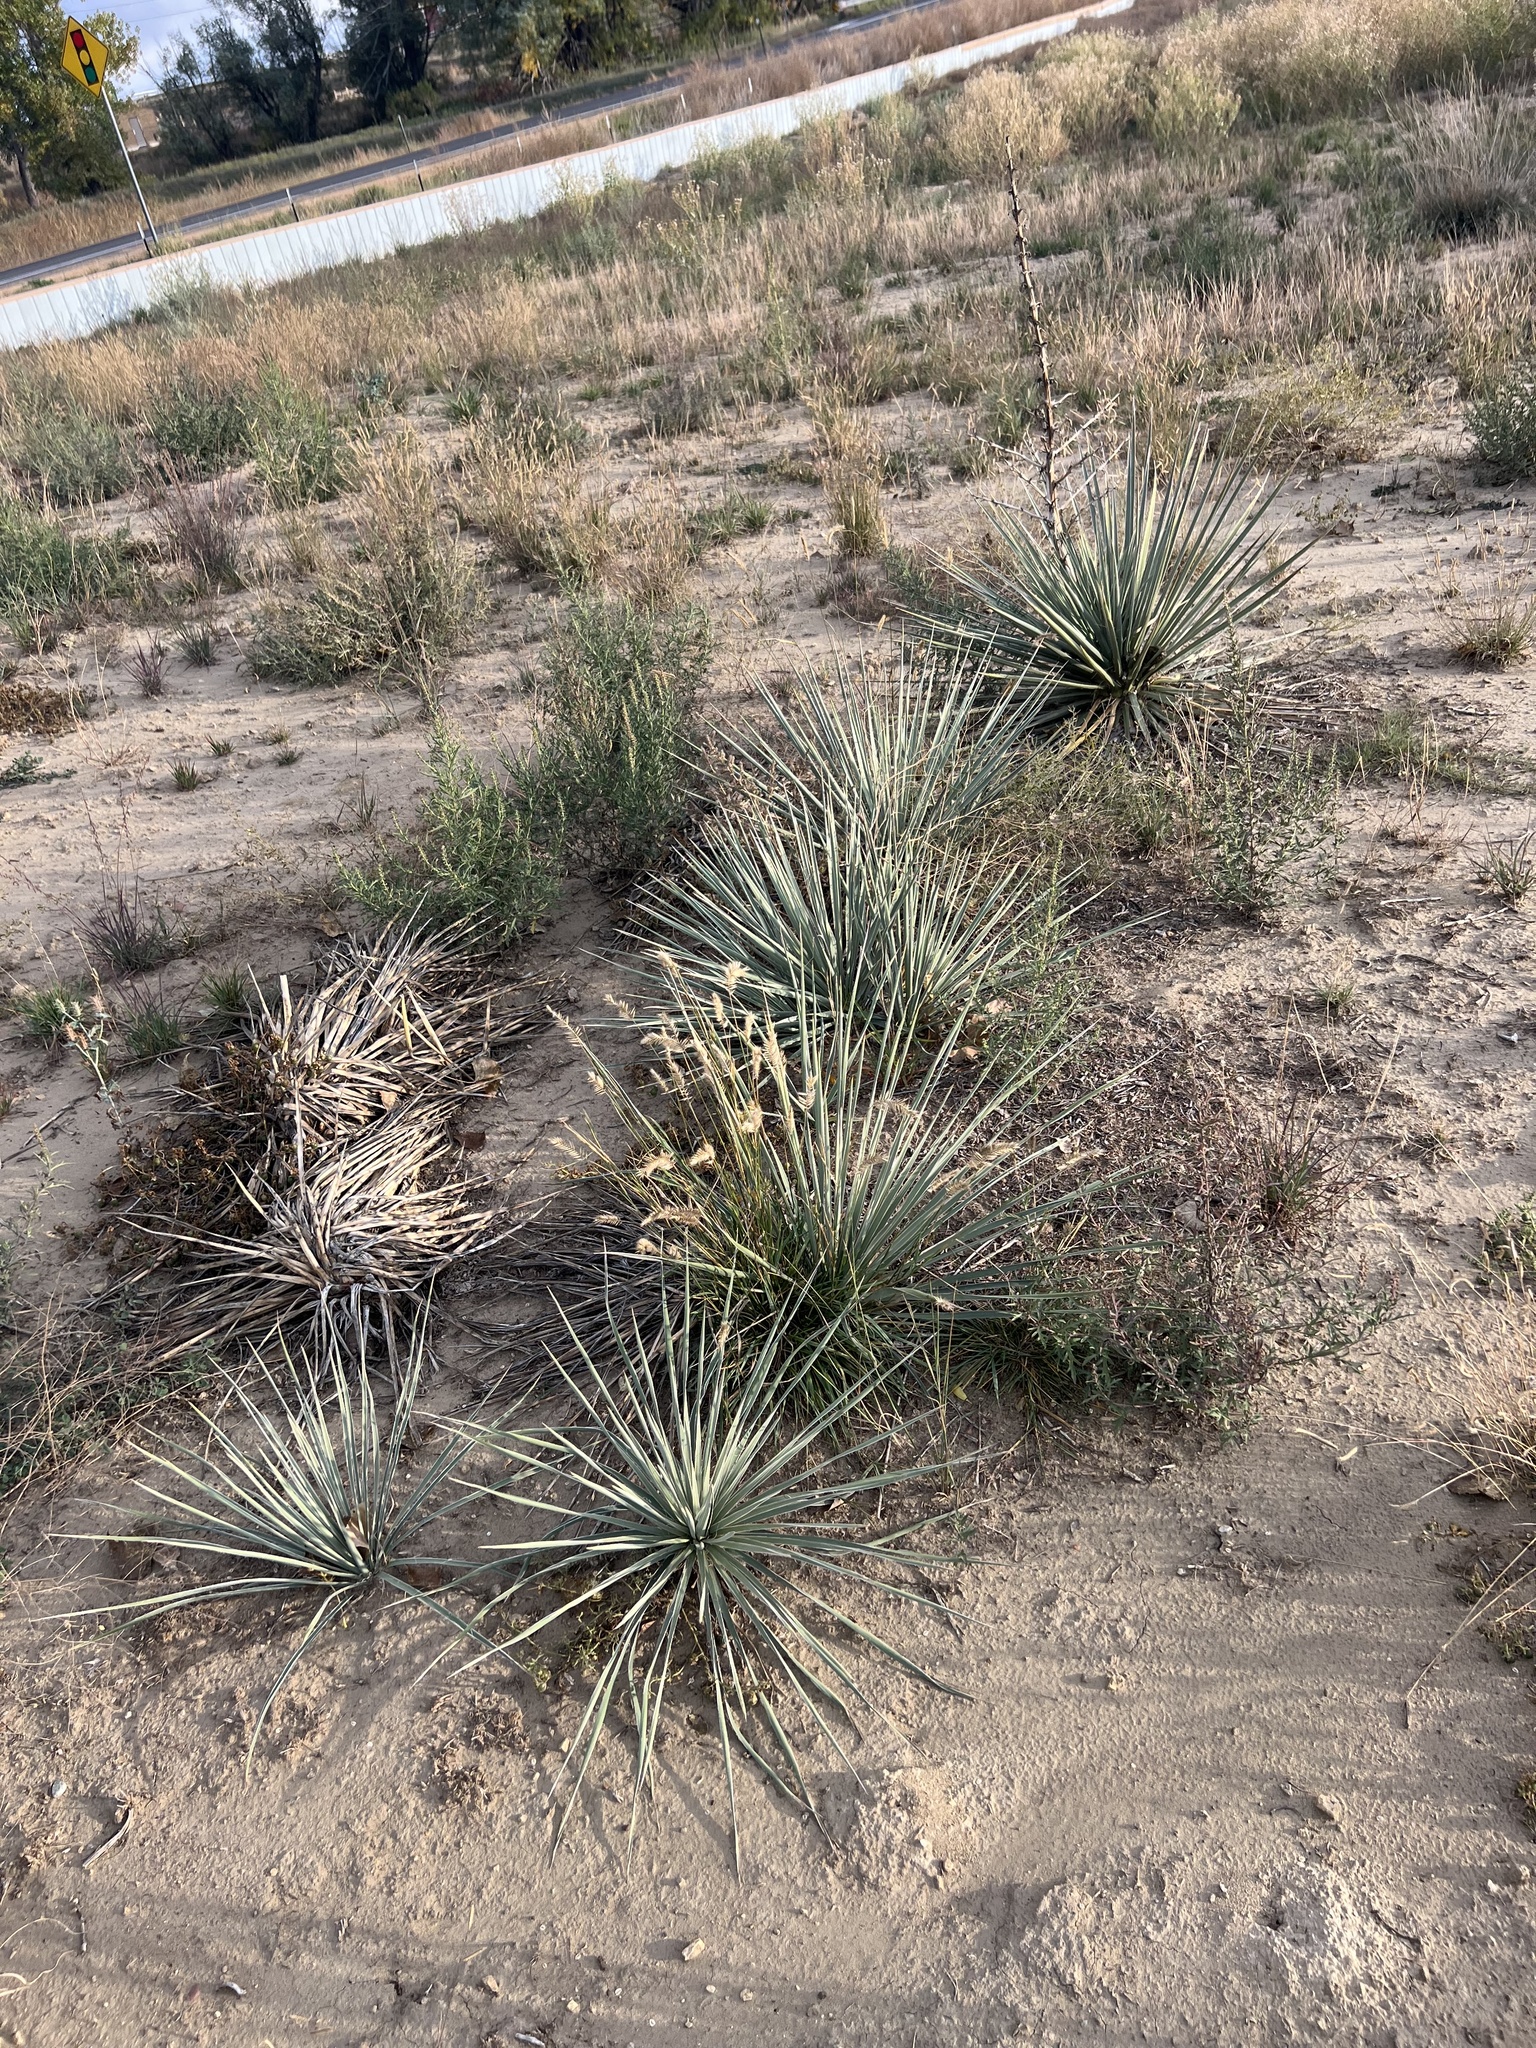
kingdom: Plantae
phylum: Tracheophyta
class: Liliopsida
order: Asparagales
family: Asparagaceae
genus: Yucca
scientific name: Yucca glauca
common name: Great plains yucca
